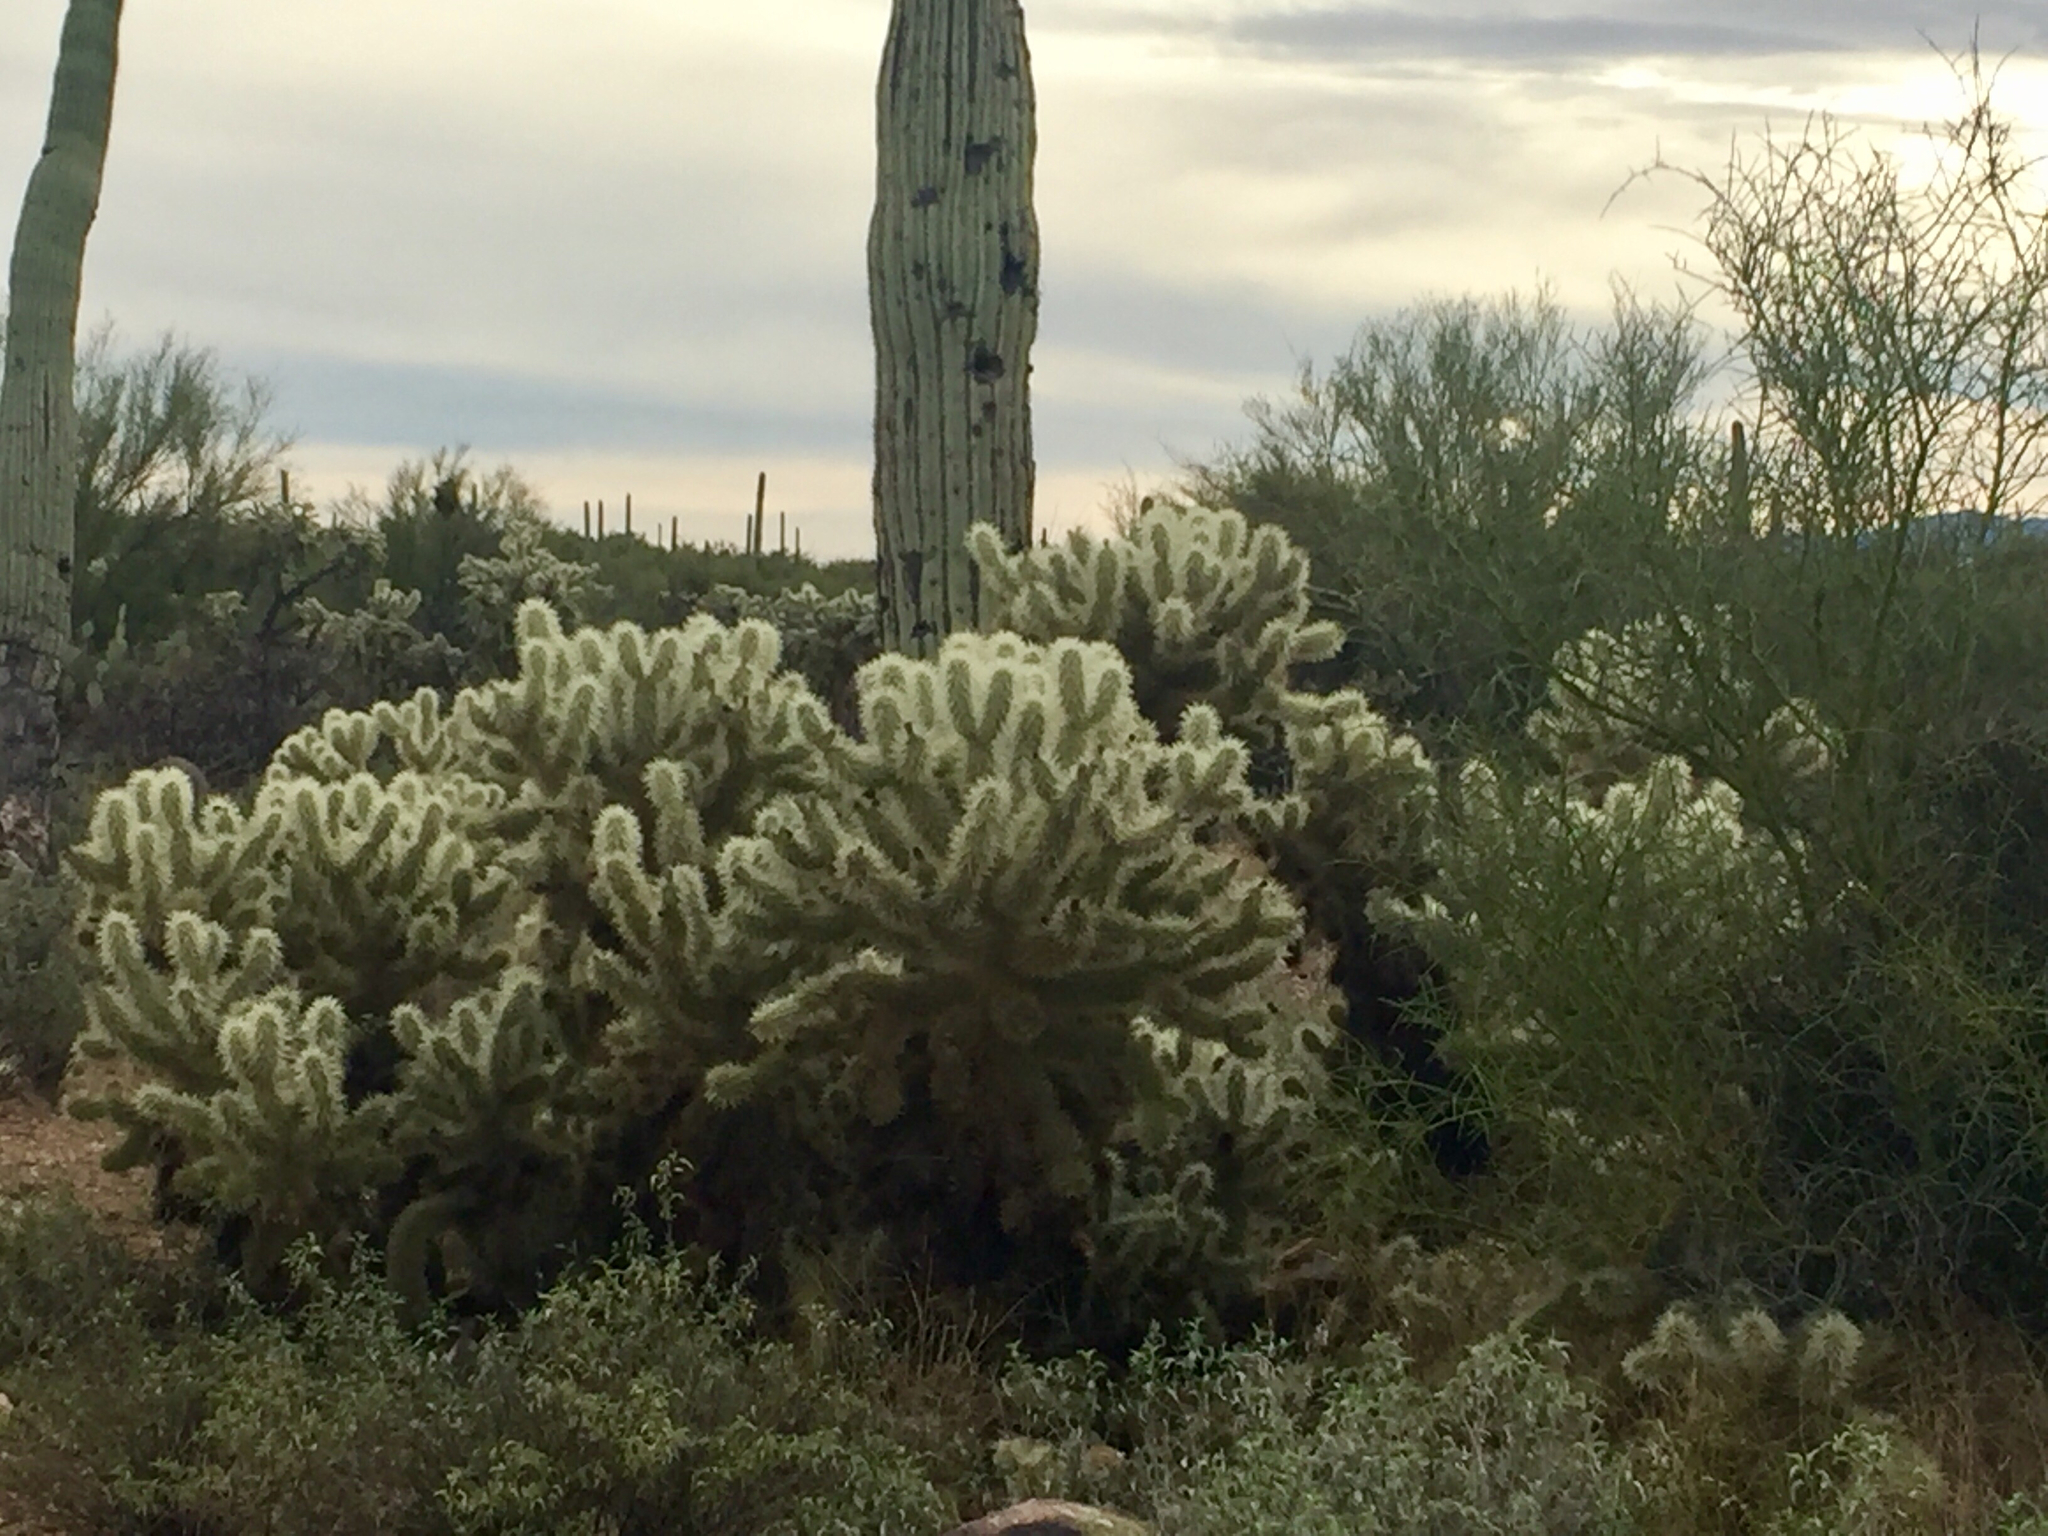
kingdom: Plantae
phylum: Tracheophyta
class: Magnoliopsida
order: Caryophyllales
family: Cactaceae
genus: Cylindropuntia
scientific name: Cylindropuntia fosbergii
